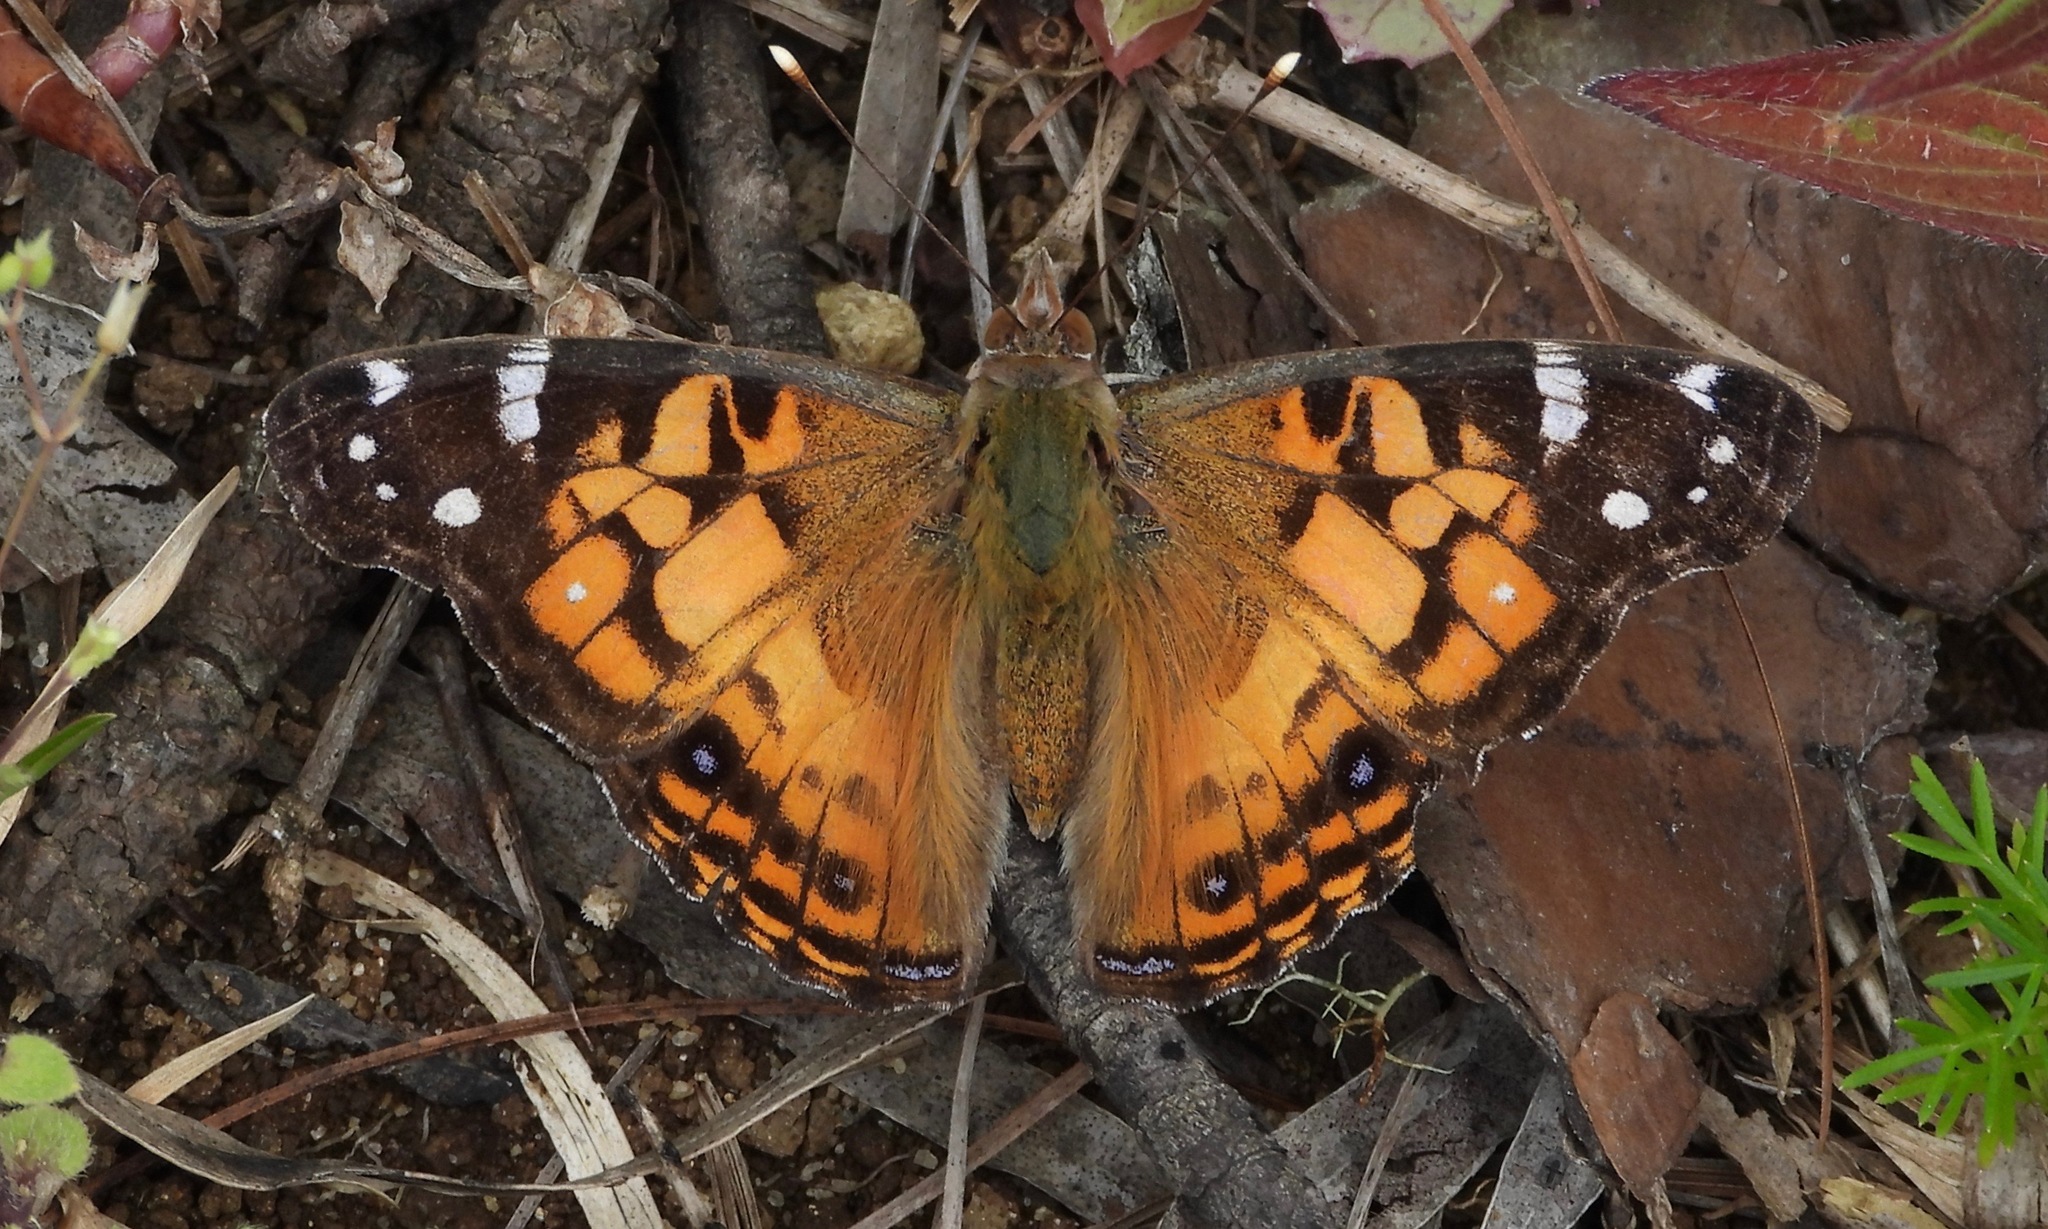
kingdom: Animalia
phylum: Arthropoda
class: Insecta
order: Lepidoptera
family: Nymphalidae
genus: Vanessa
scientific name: Vanessa virginiensis
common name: American lady
